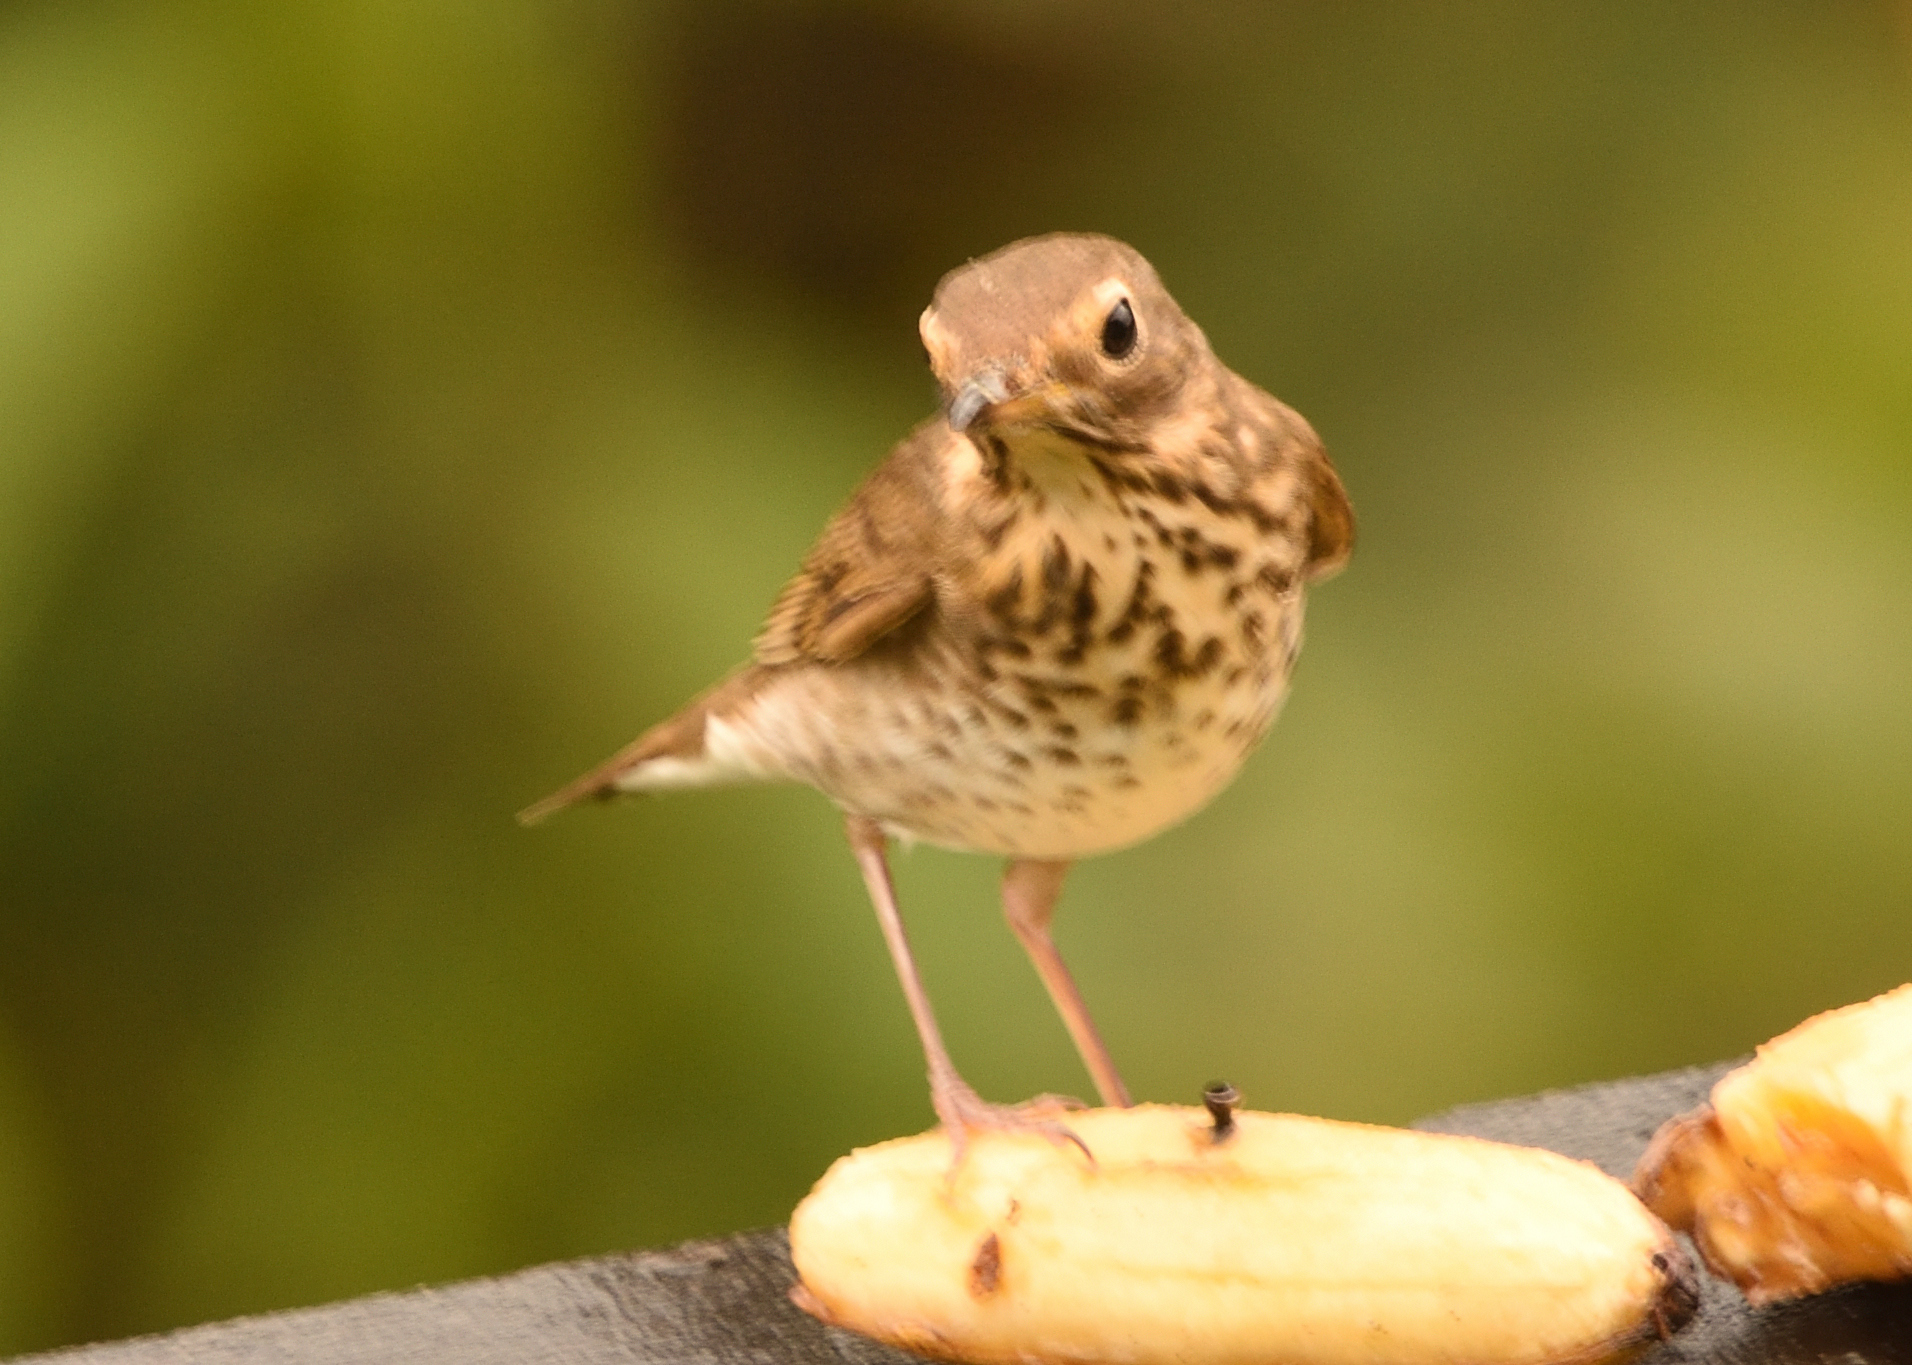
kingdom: Animalia
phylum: Chordata
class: Aves
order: Passeriformes
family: Turdidae
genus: Catharus
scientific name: Catharus ustulatus
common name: Swainson's thrush
